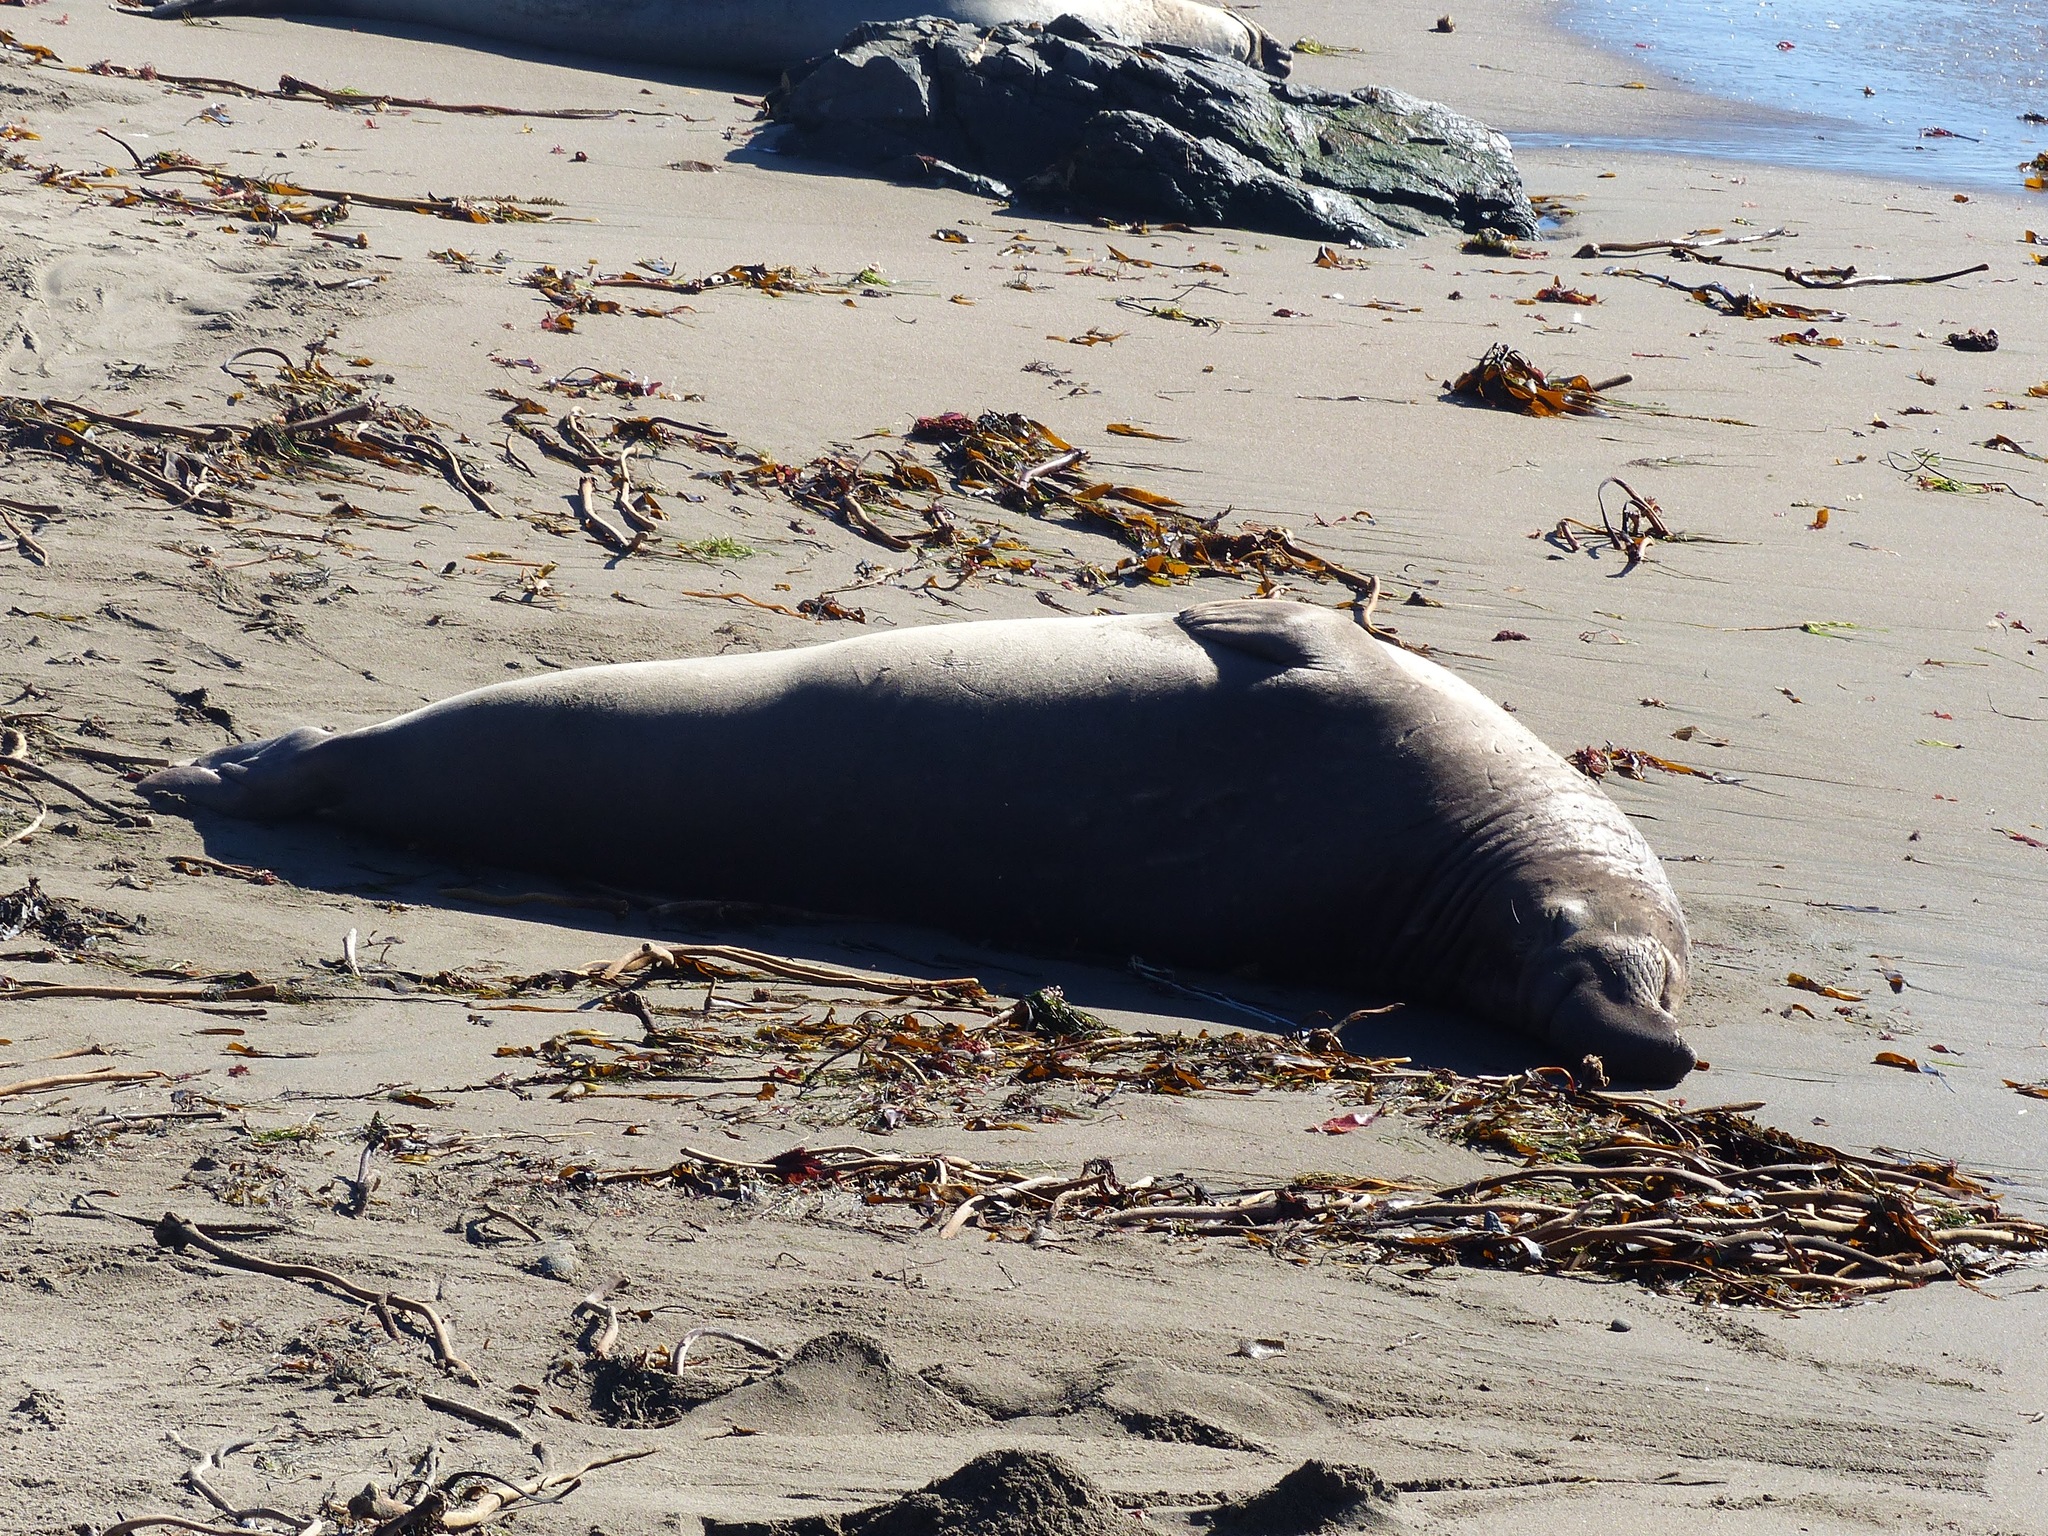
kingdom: Animalia
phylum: Chordata
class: Mammalia
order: Carnivora
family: Phocidae
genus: Mirounga
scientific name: Mirounga angustirostris
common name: Northern elephant seal
